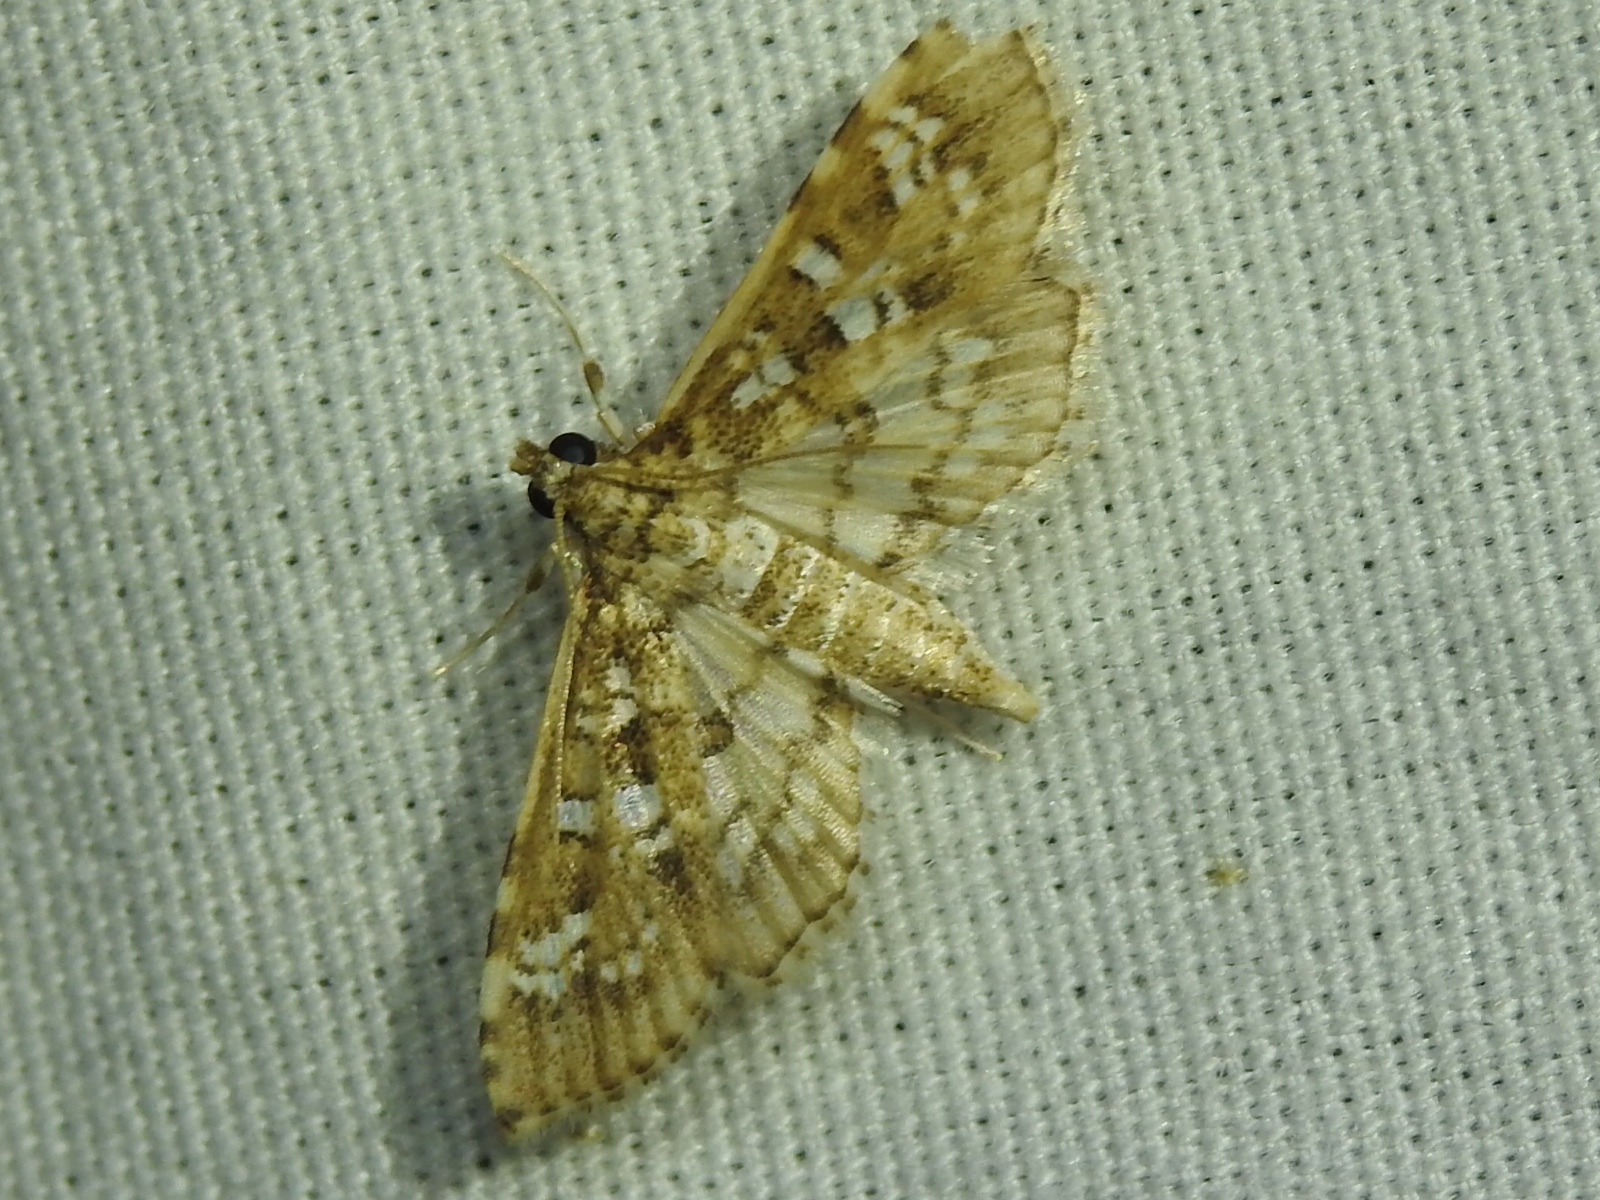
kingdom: Animalia
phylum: Arthropoda
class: Insecta
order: Lepidoptera
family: Crambidae
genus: Samea
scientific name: Samea multiplicalis
